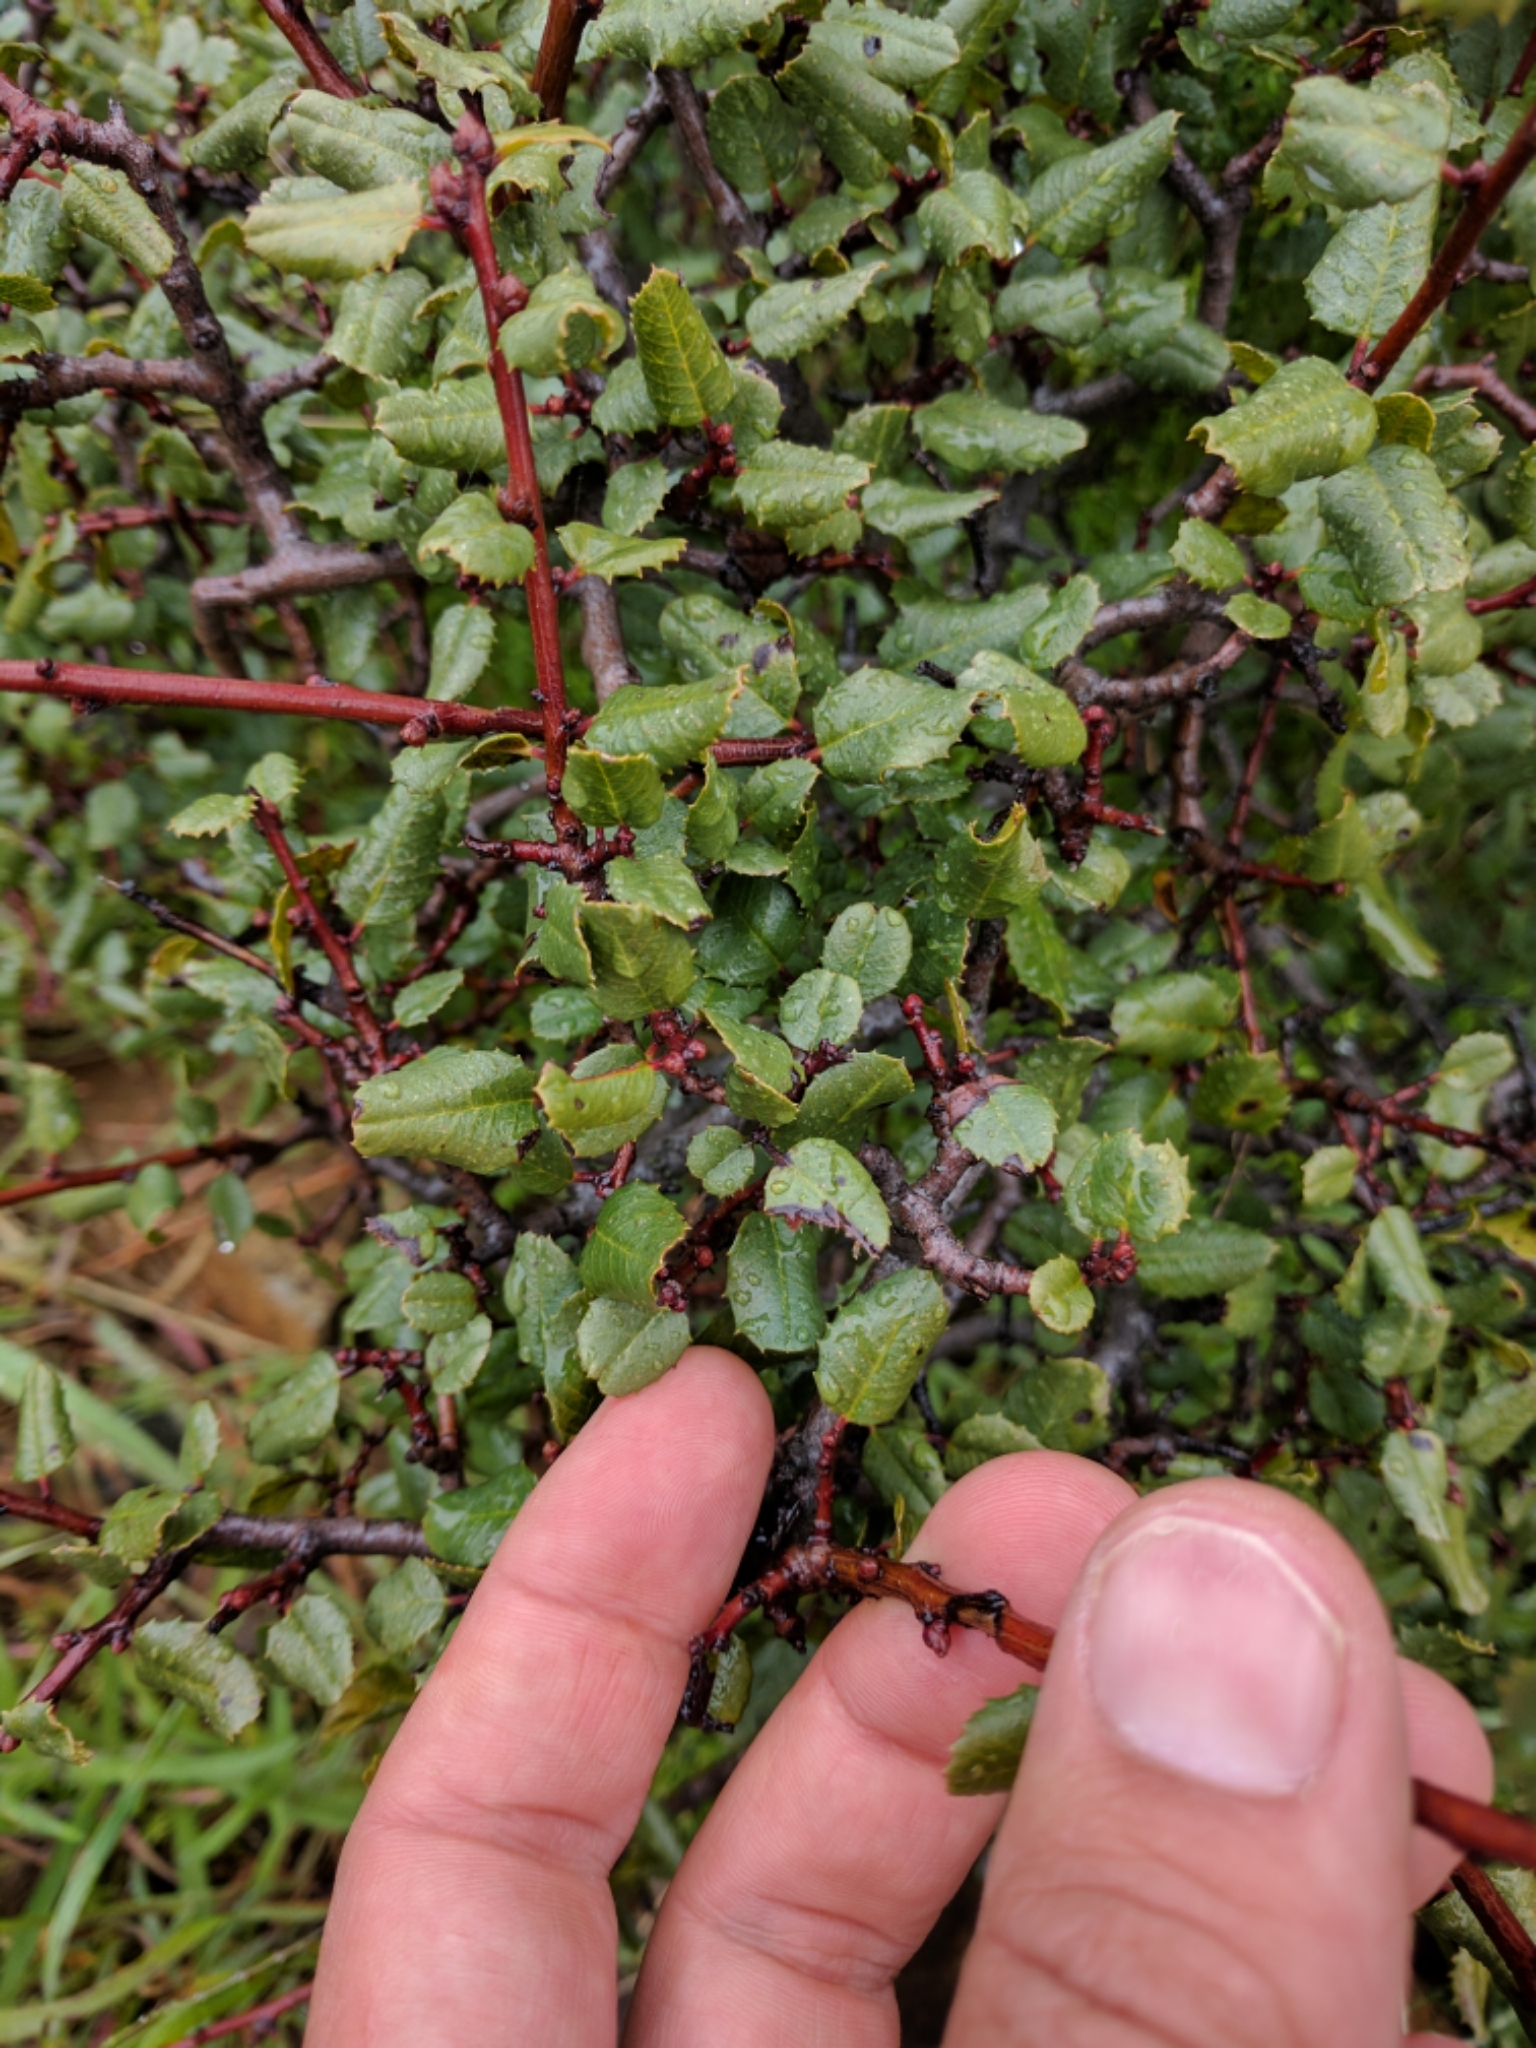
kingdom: Plantae
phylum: Tracheophyta
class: Magnoliopsida
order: Rosales
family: Rhamnaceae
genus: Endotropis
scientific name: Endotropis crocea
